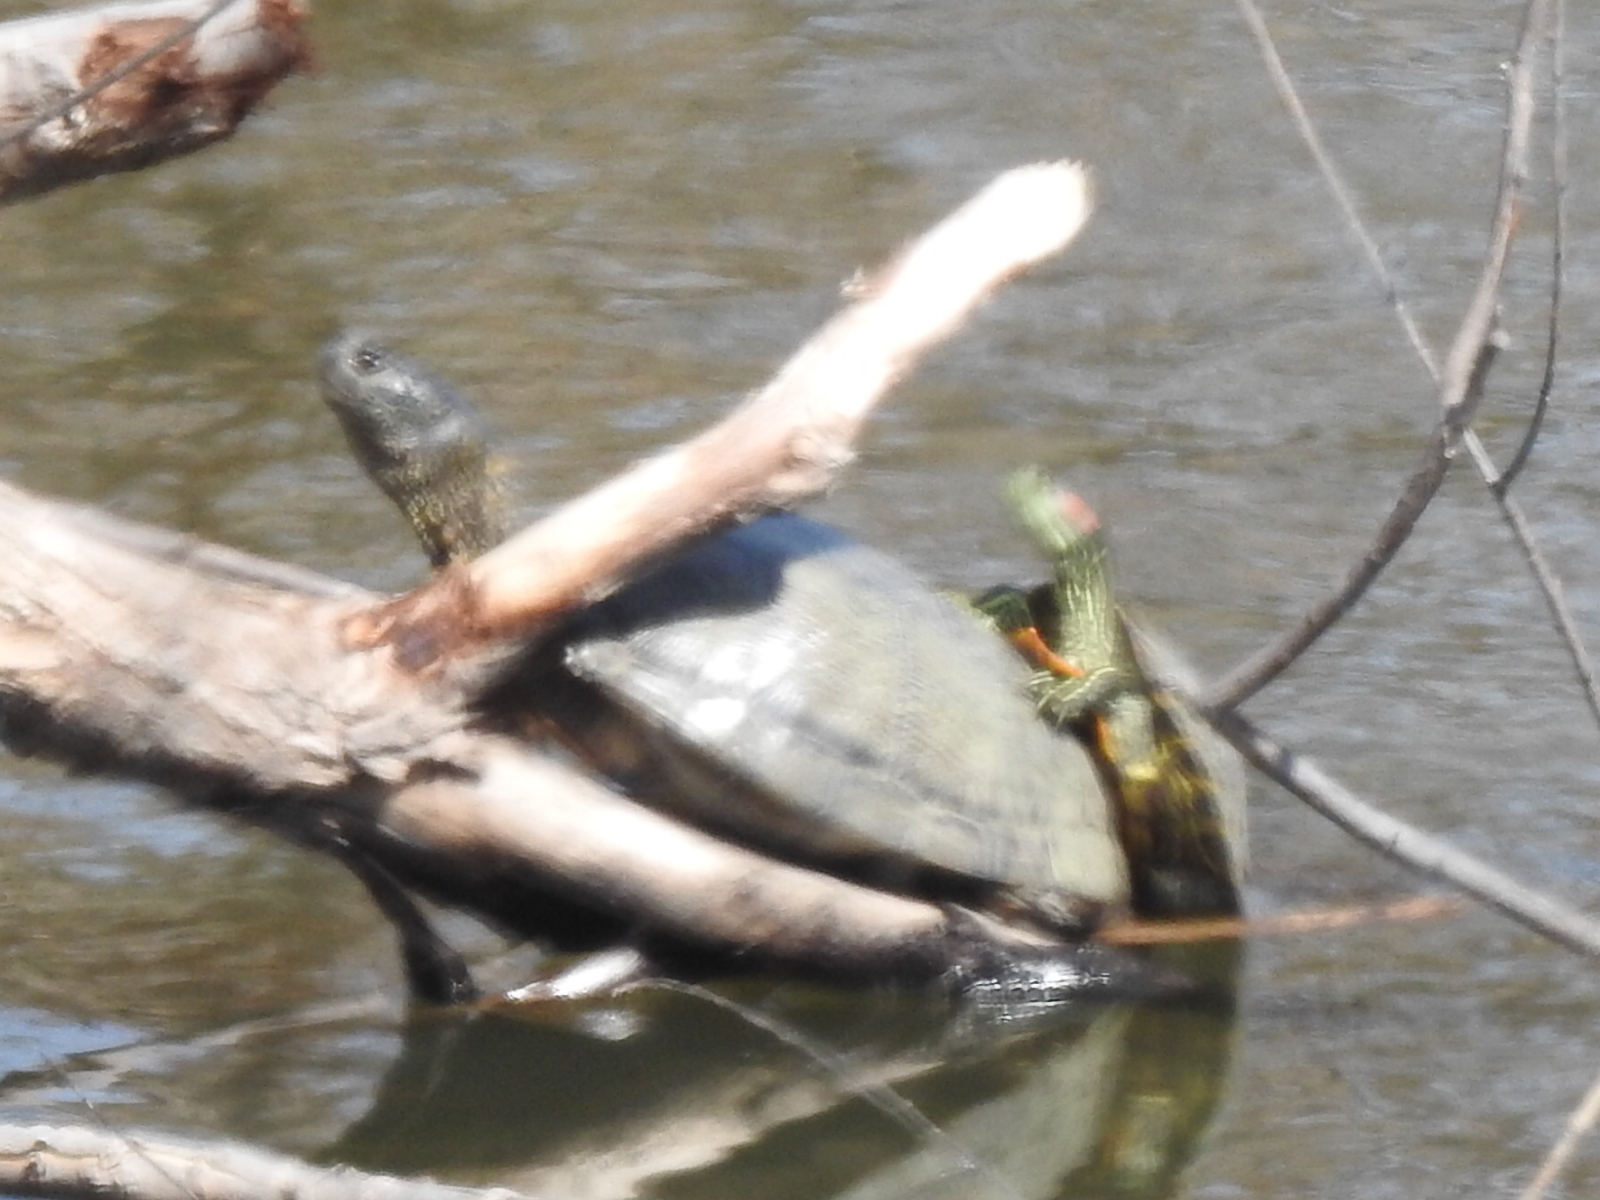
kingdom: Animalia
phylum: Chordata
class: Testudines
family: Emydidae
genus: Trachemys
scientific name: Trachemys scripta
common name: Slider
